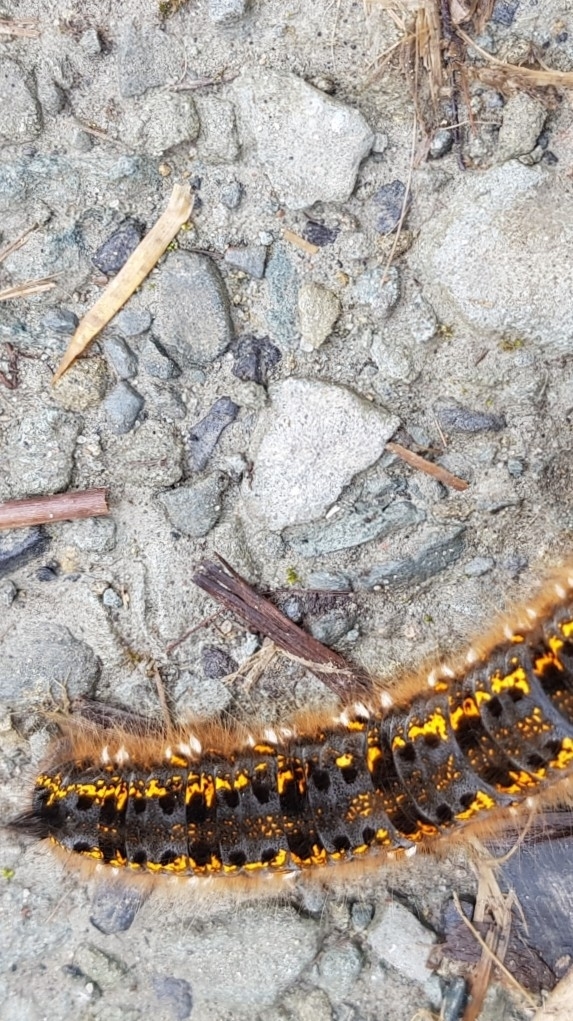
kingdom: Animalia
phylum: Arthropoda
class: Insecta
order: Lepidoptera
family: Lasiocampidae
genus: Euthrix
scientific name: Euthrix potatoria
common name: Drinker
